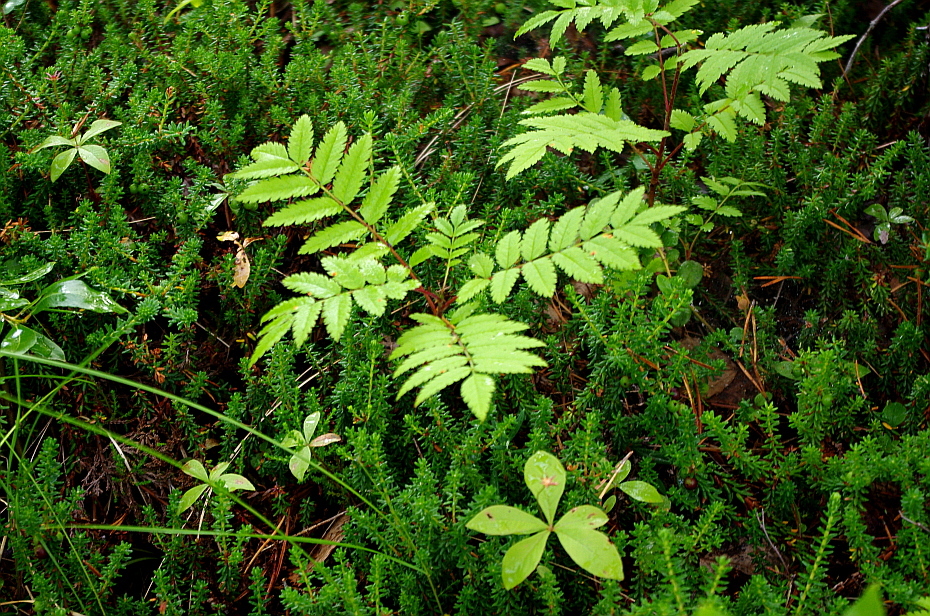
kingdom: Plantae
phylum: Tracheophyta
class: Magnoliopsida
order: Rosales
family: Rosaceae
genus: Sorbus
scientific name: Sorbus aucuparia
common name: Rowan
